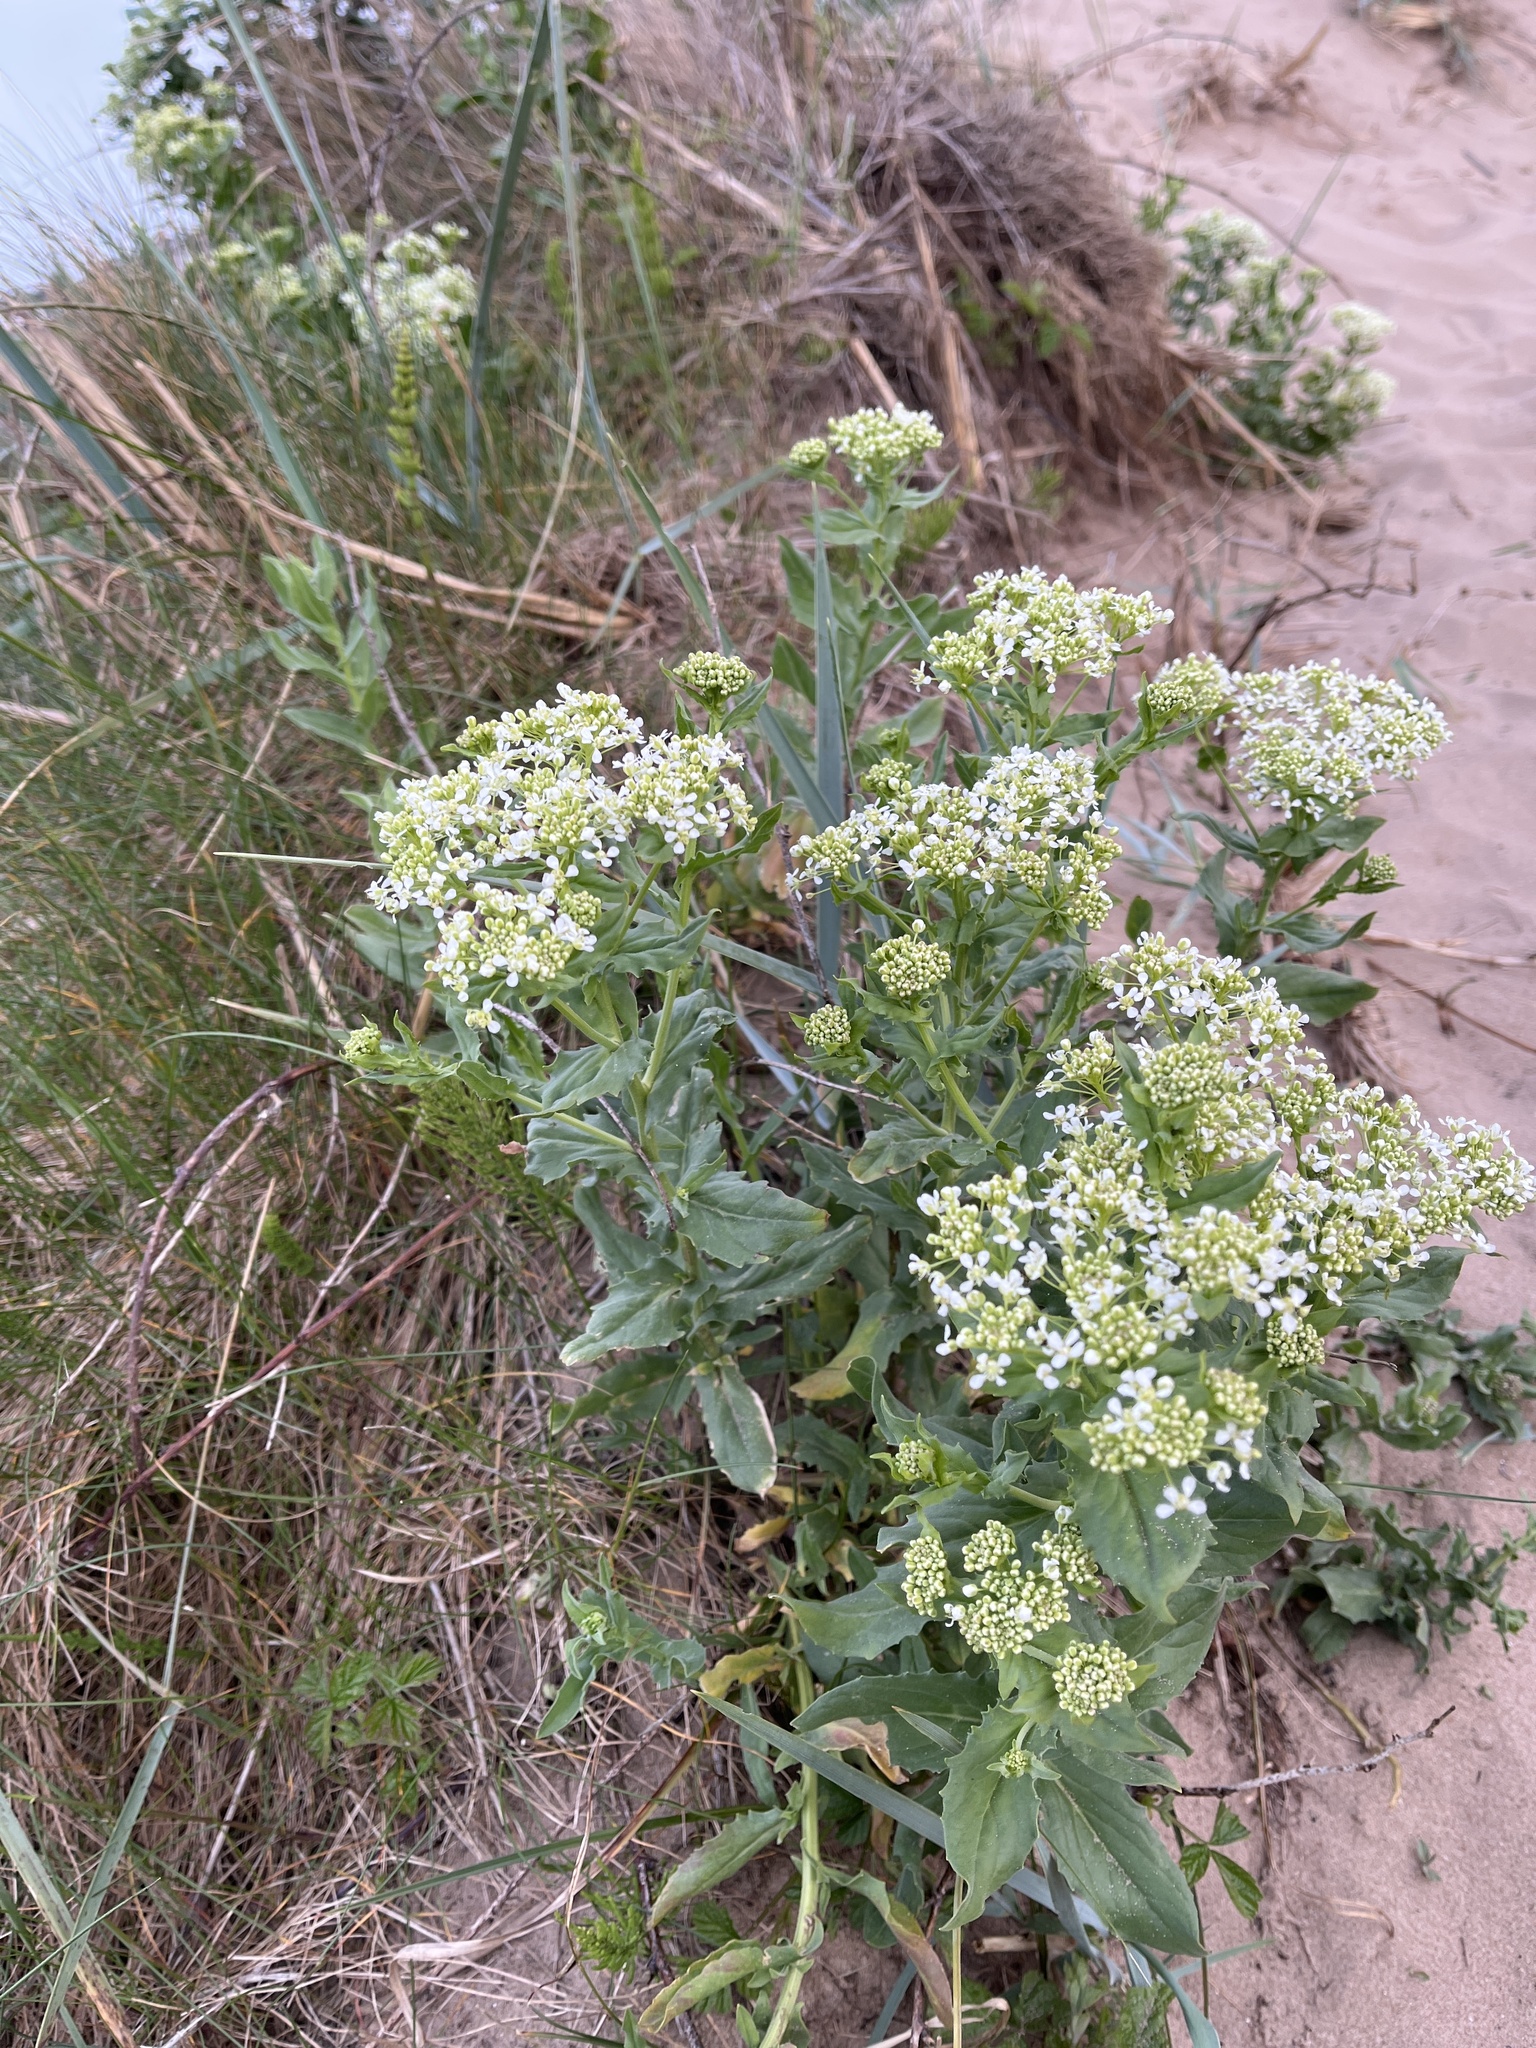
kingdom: Plantae
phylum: Tracheophyta
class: Magnoliopsida
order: Brassicales
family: Brassicaceae
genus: Lepidium
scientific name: Lepidium draba
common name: Hoary cress
